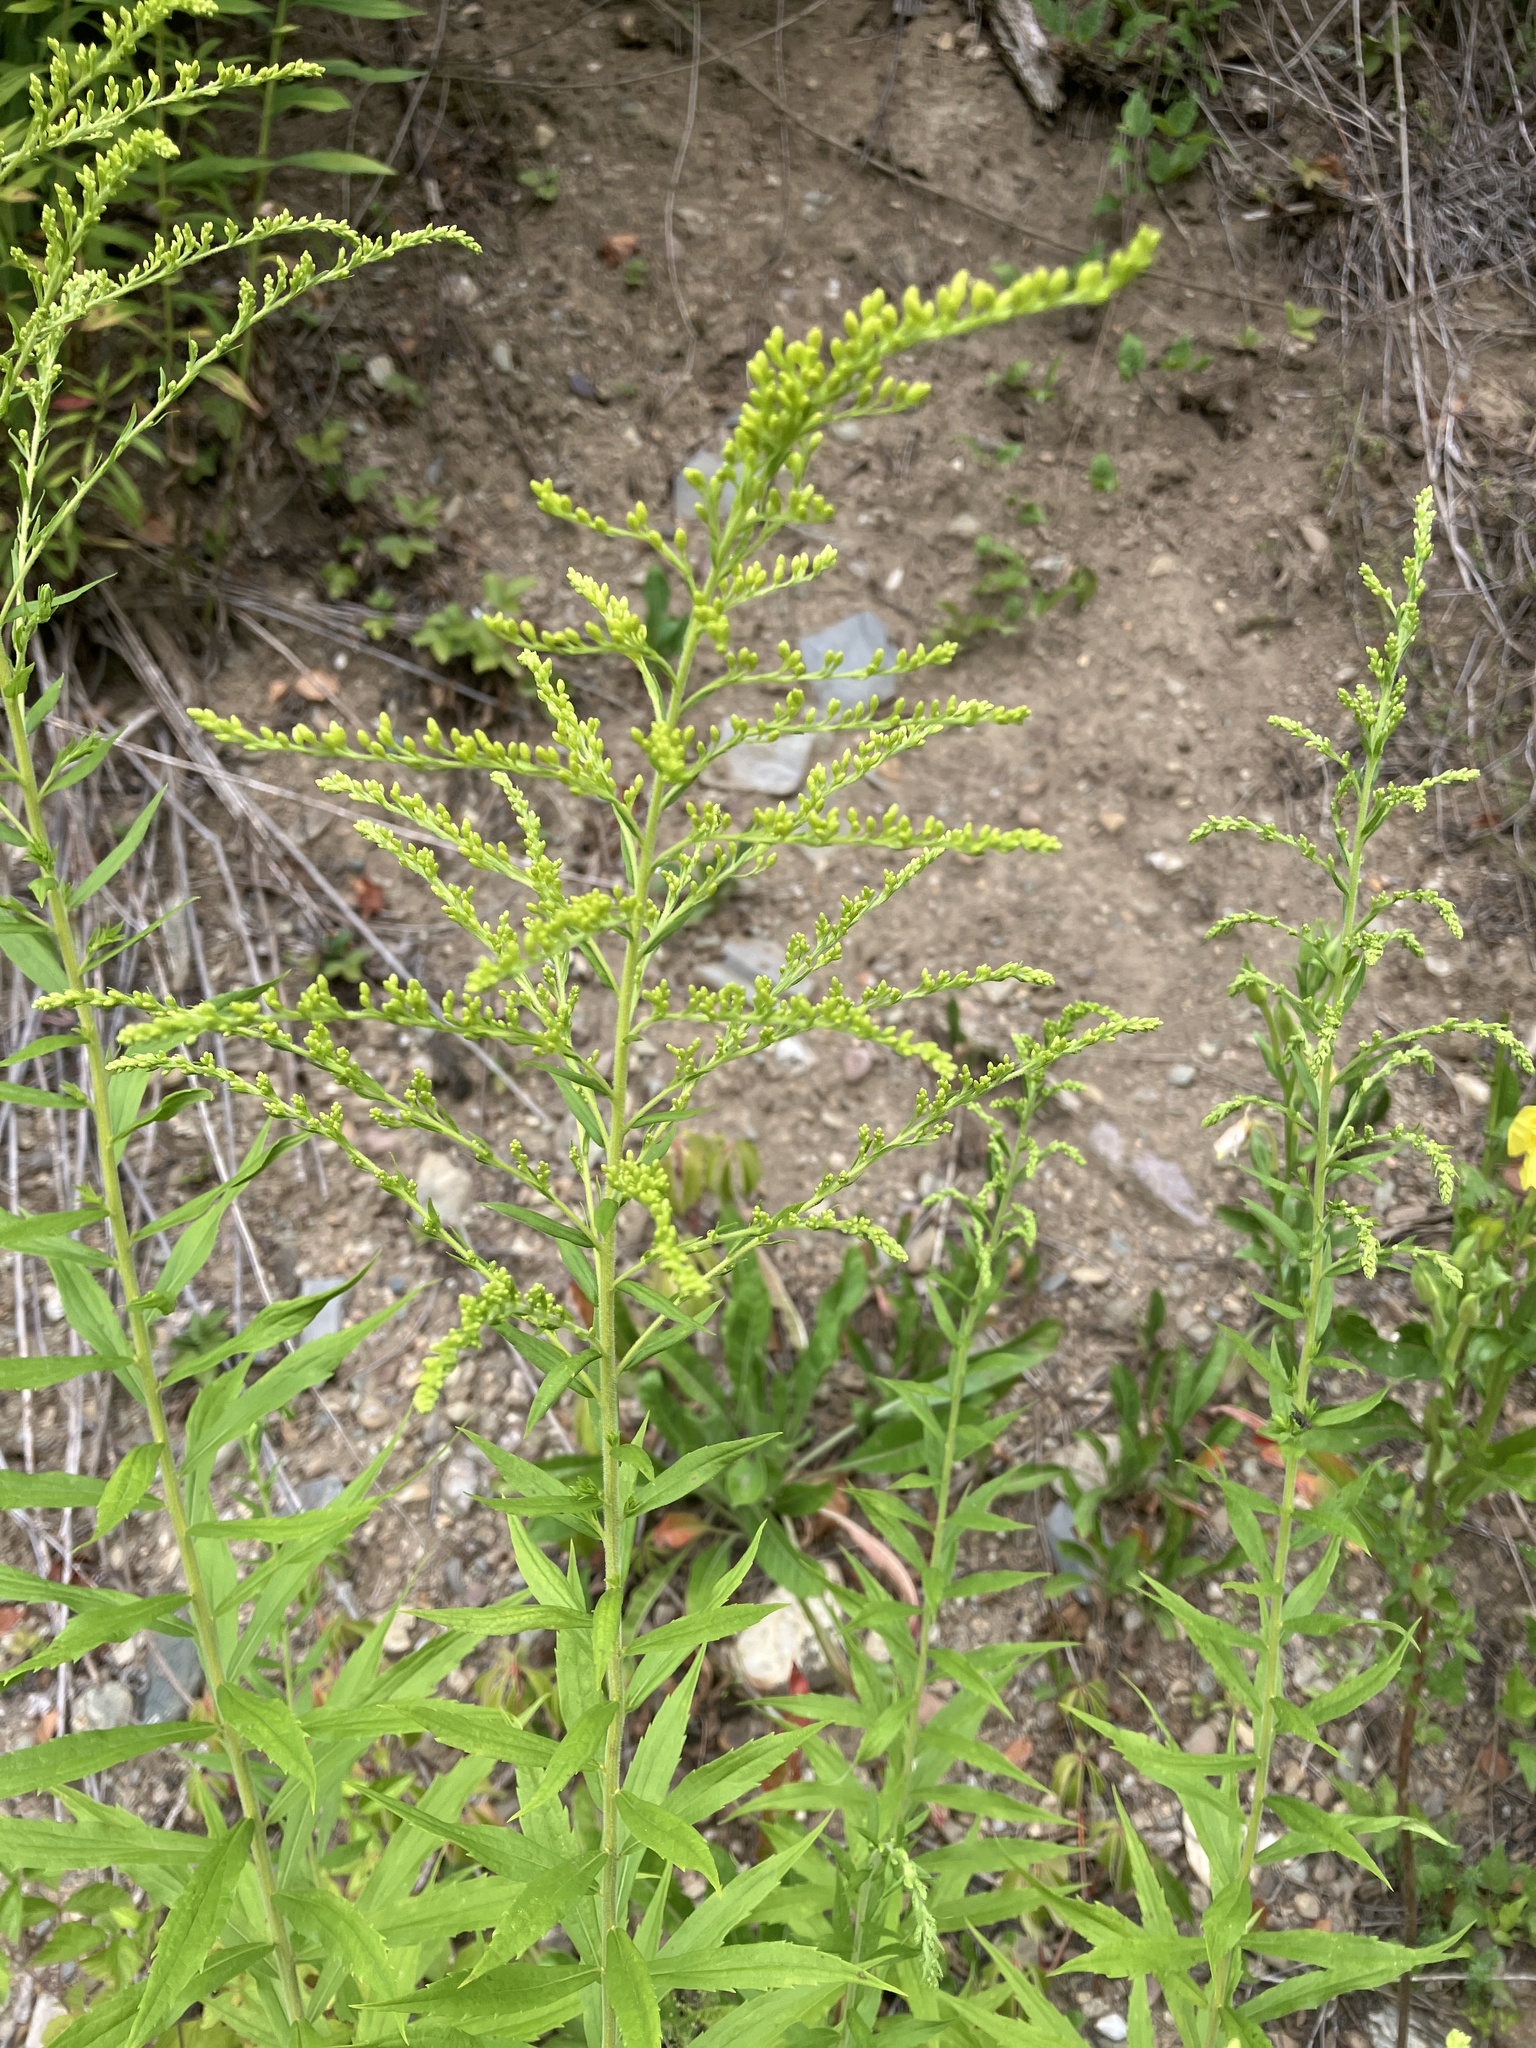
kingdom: Plantae
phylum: Tracheophyta
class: Magnoliopsida
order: Asterales
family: Asteraceae
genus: Solidago
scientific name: Solidago canadensis
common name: Canada goldenrod
